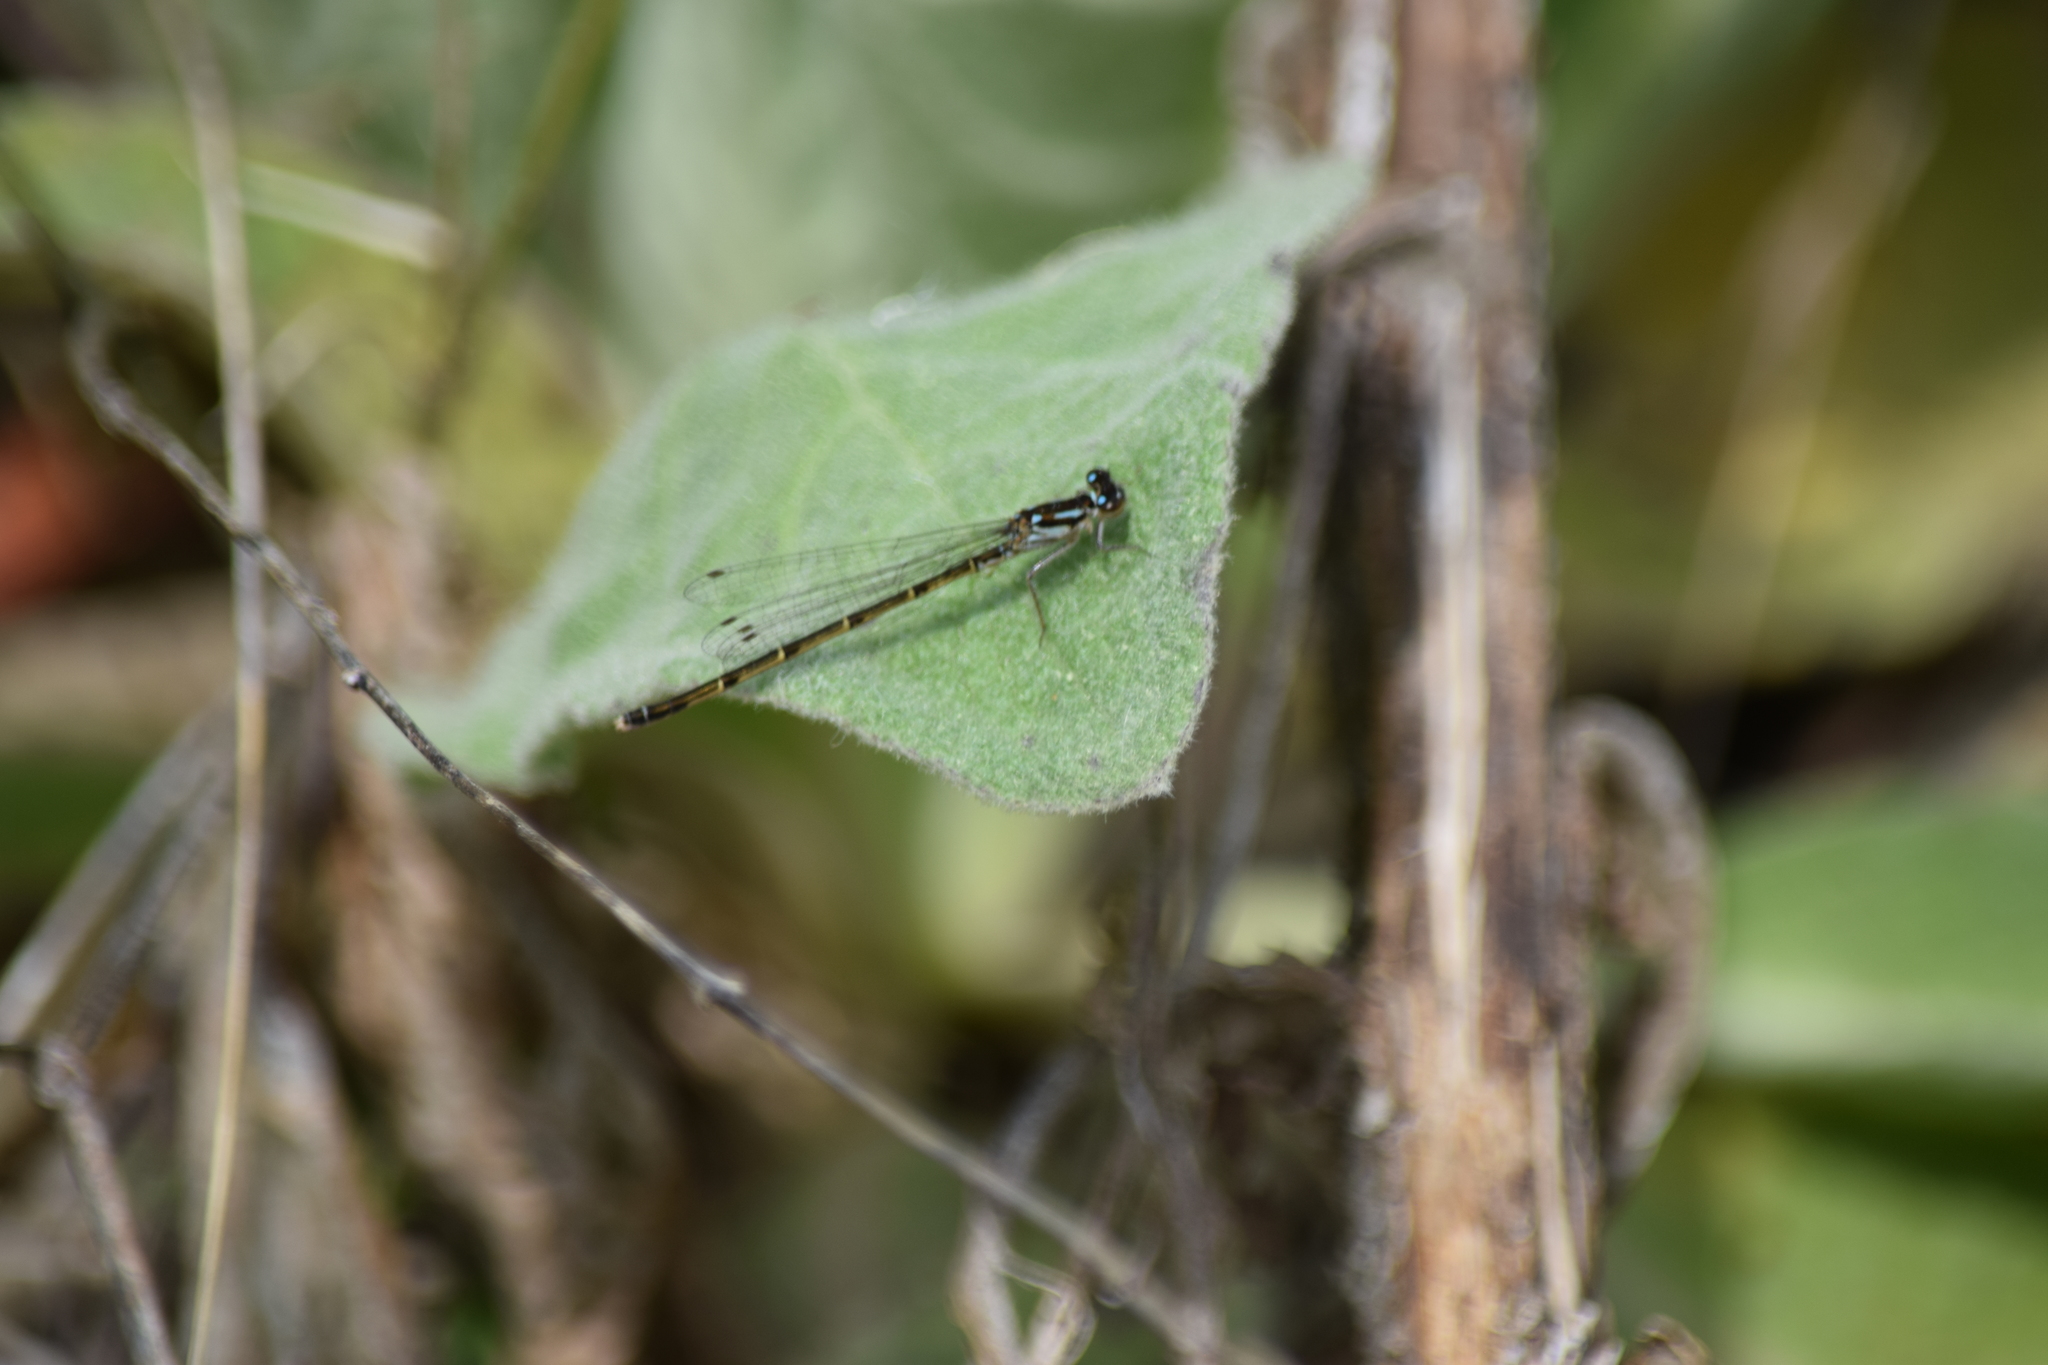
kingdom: Animalia
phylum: Arthropoda
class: Insecta
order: Odonata
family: Coenagrionidae
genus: Ischnura
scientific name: Ischnura posita
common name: Fragile forktail
